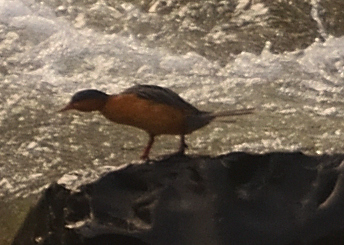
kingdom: Animalia
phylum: Chordata
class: Aves
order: Anseriformes
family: Anatidae
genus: Merganetta
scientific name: Merganetta armata
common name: Torrent duck
